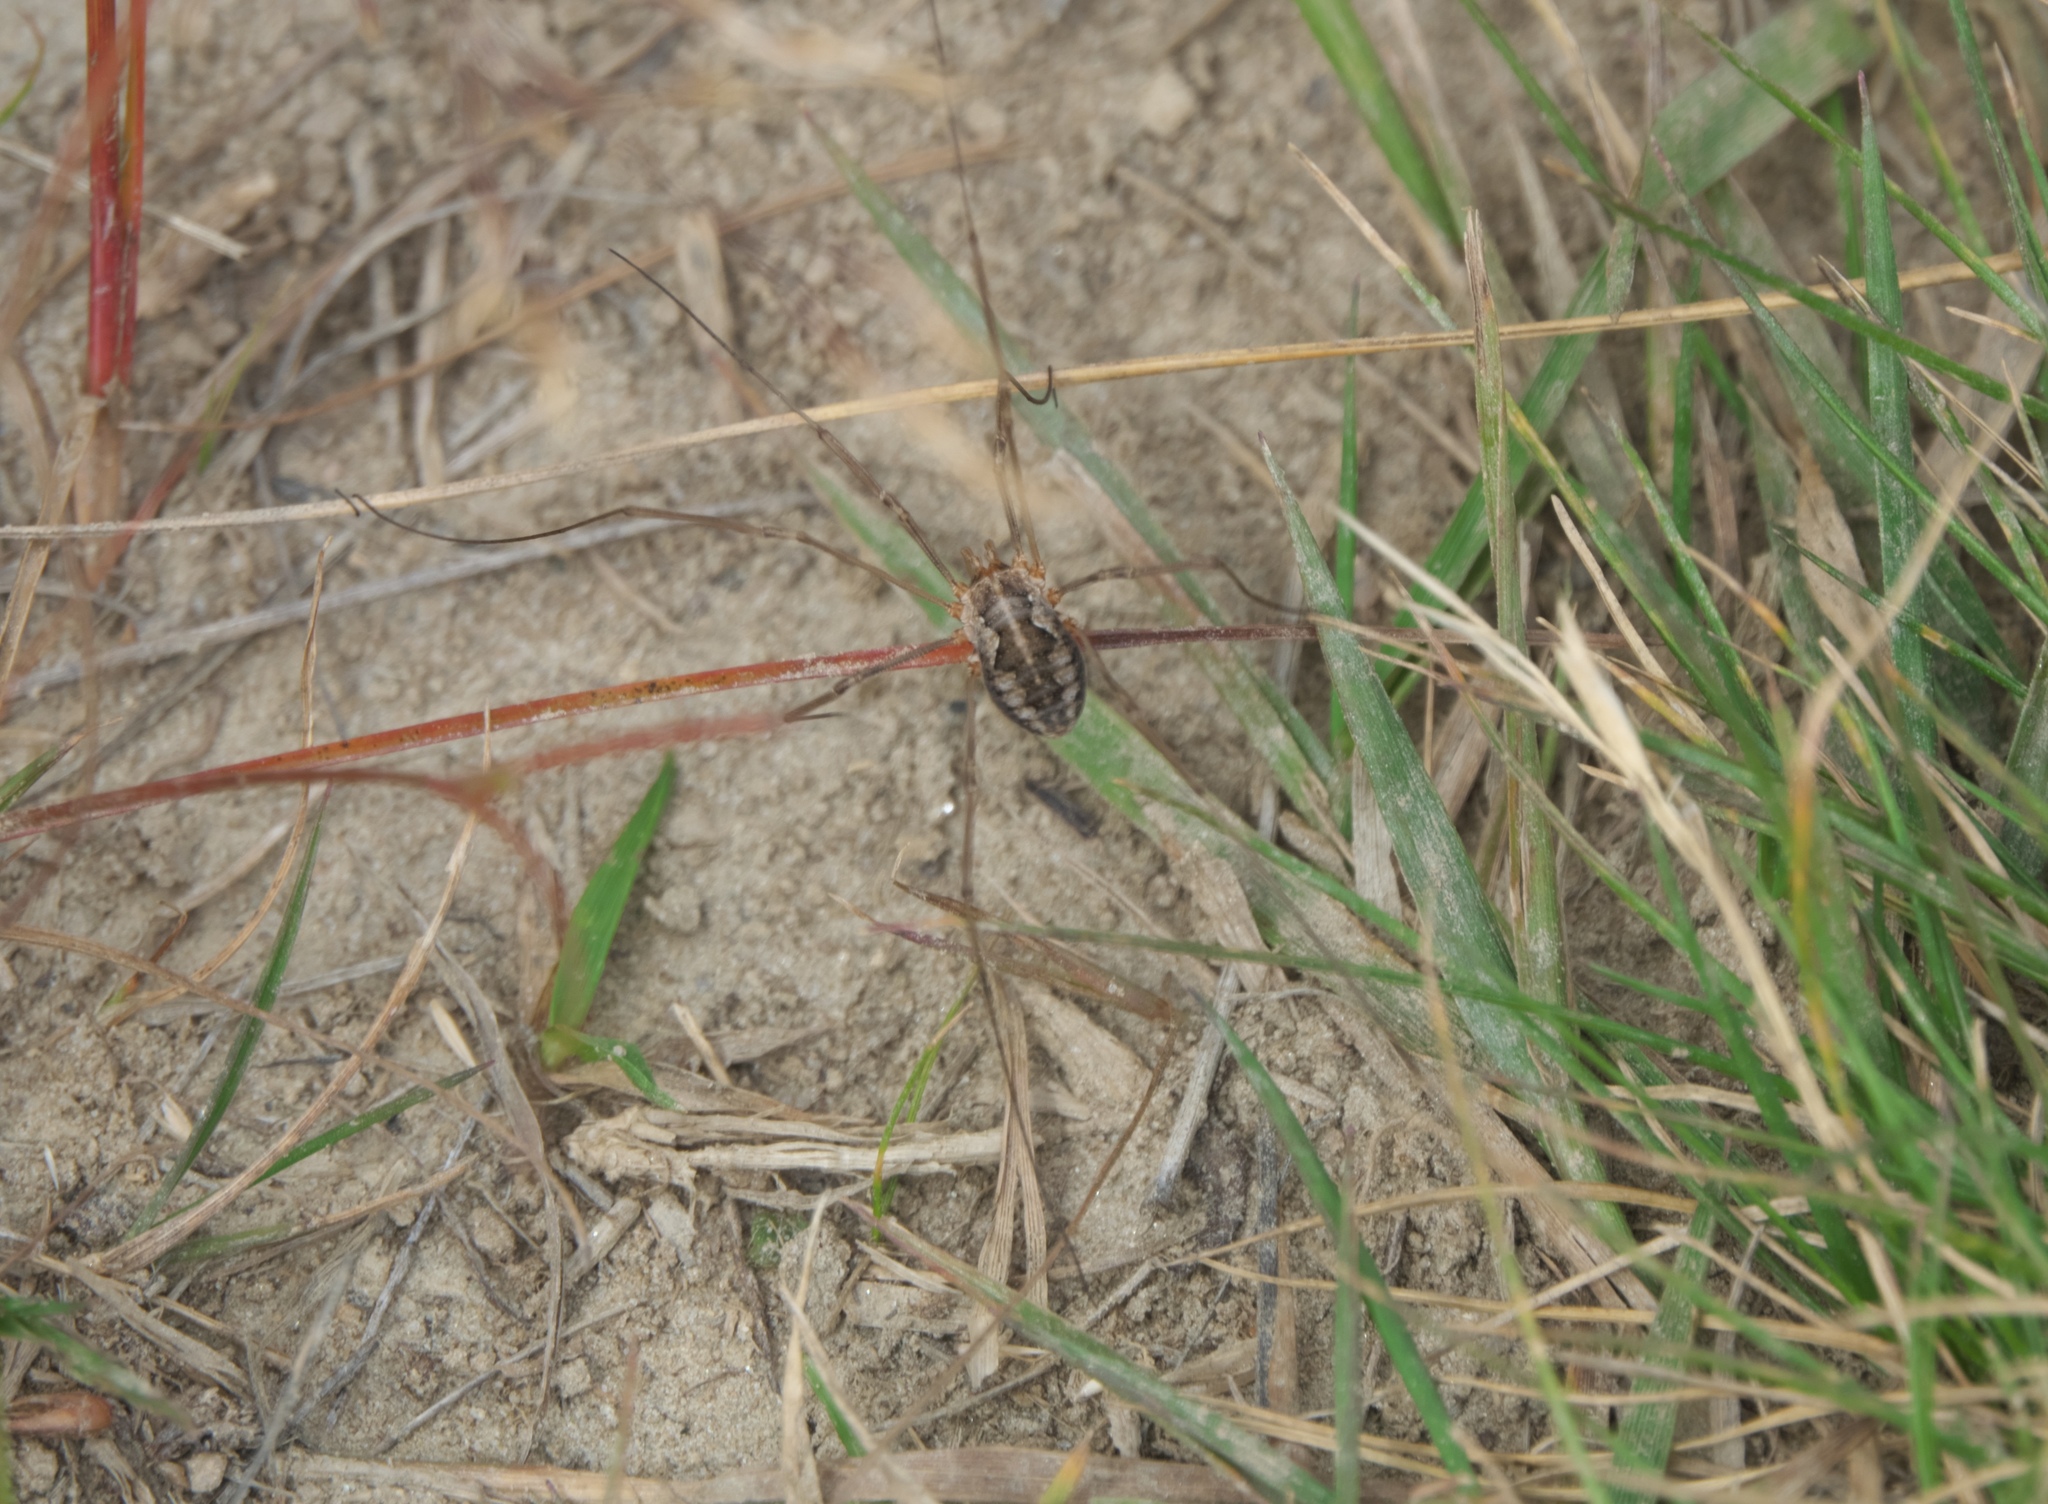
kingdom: Animalia
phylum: Arthropoda
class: Arachnida
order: Opiliones
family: Phalangiidae
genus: Phalangium
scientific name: Phalangium opilio
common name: Daddy longleg
